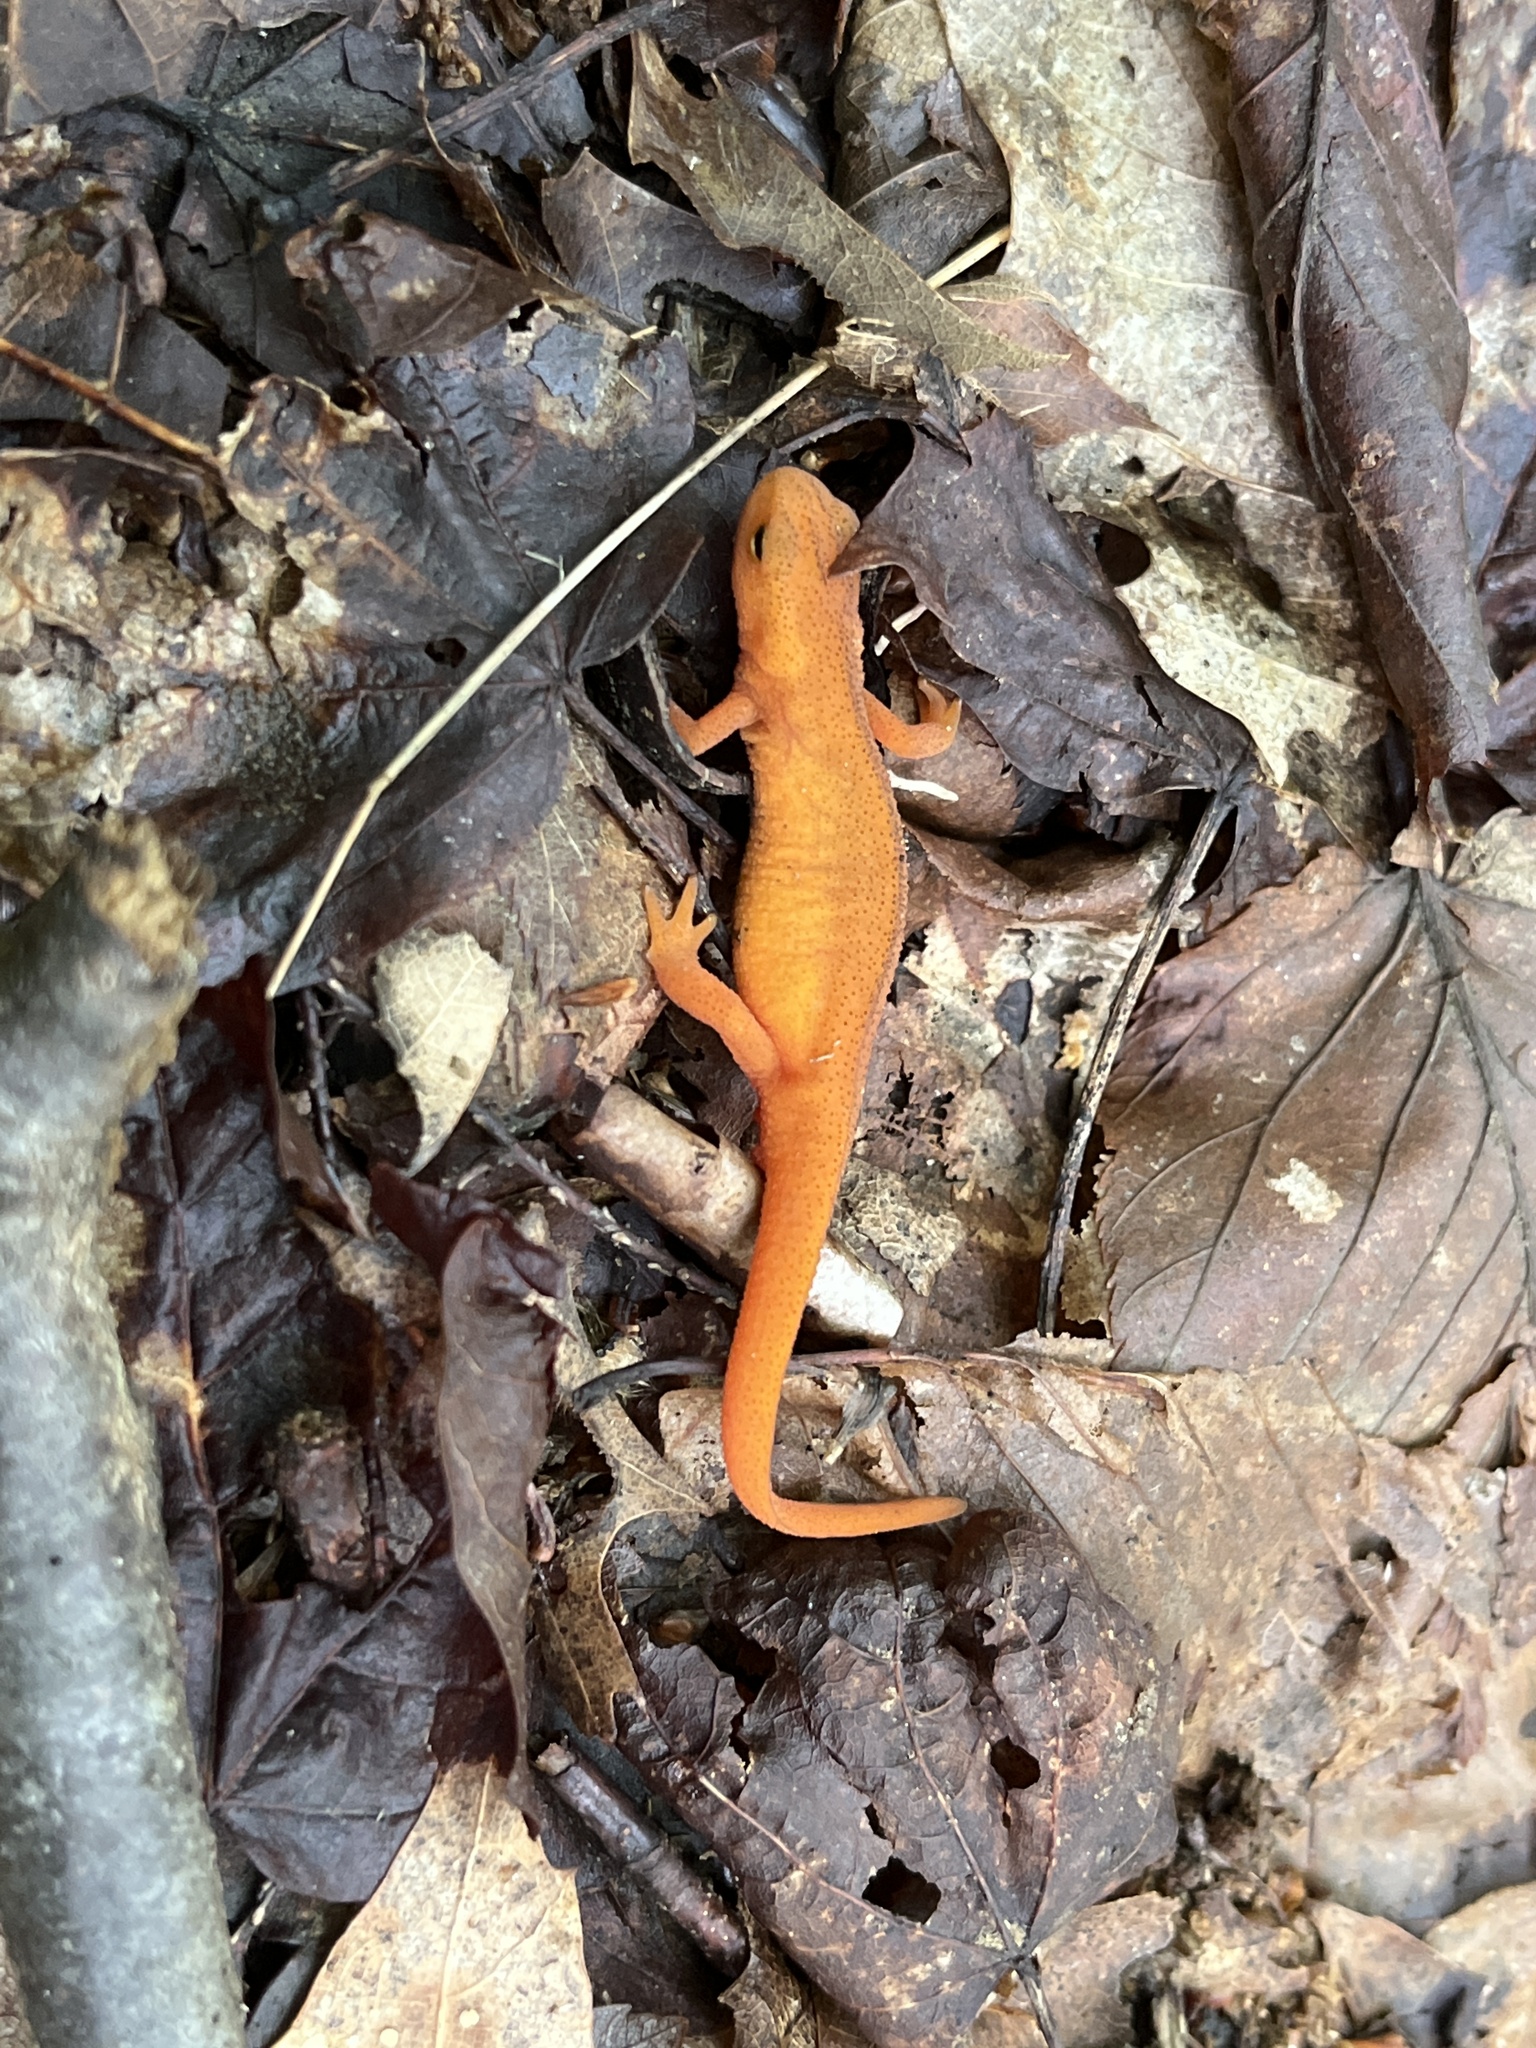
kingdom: Animalia
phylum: Chordata
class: Amphibia
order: Caudata
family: Salamandridae
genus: Notophthalmus
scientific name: Notophthalmus viridescens
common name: Eastern newt
